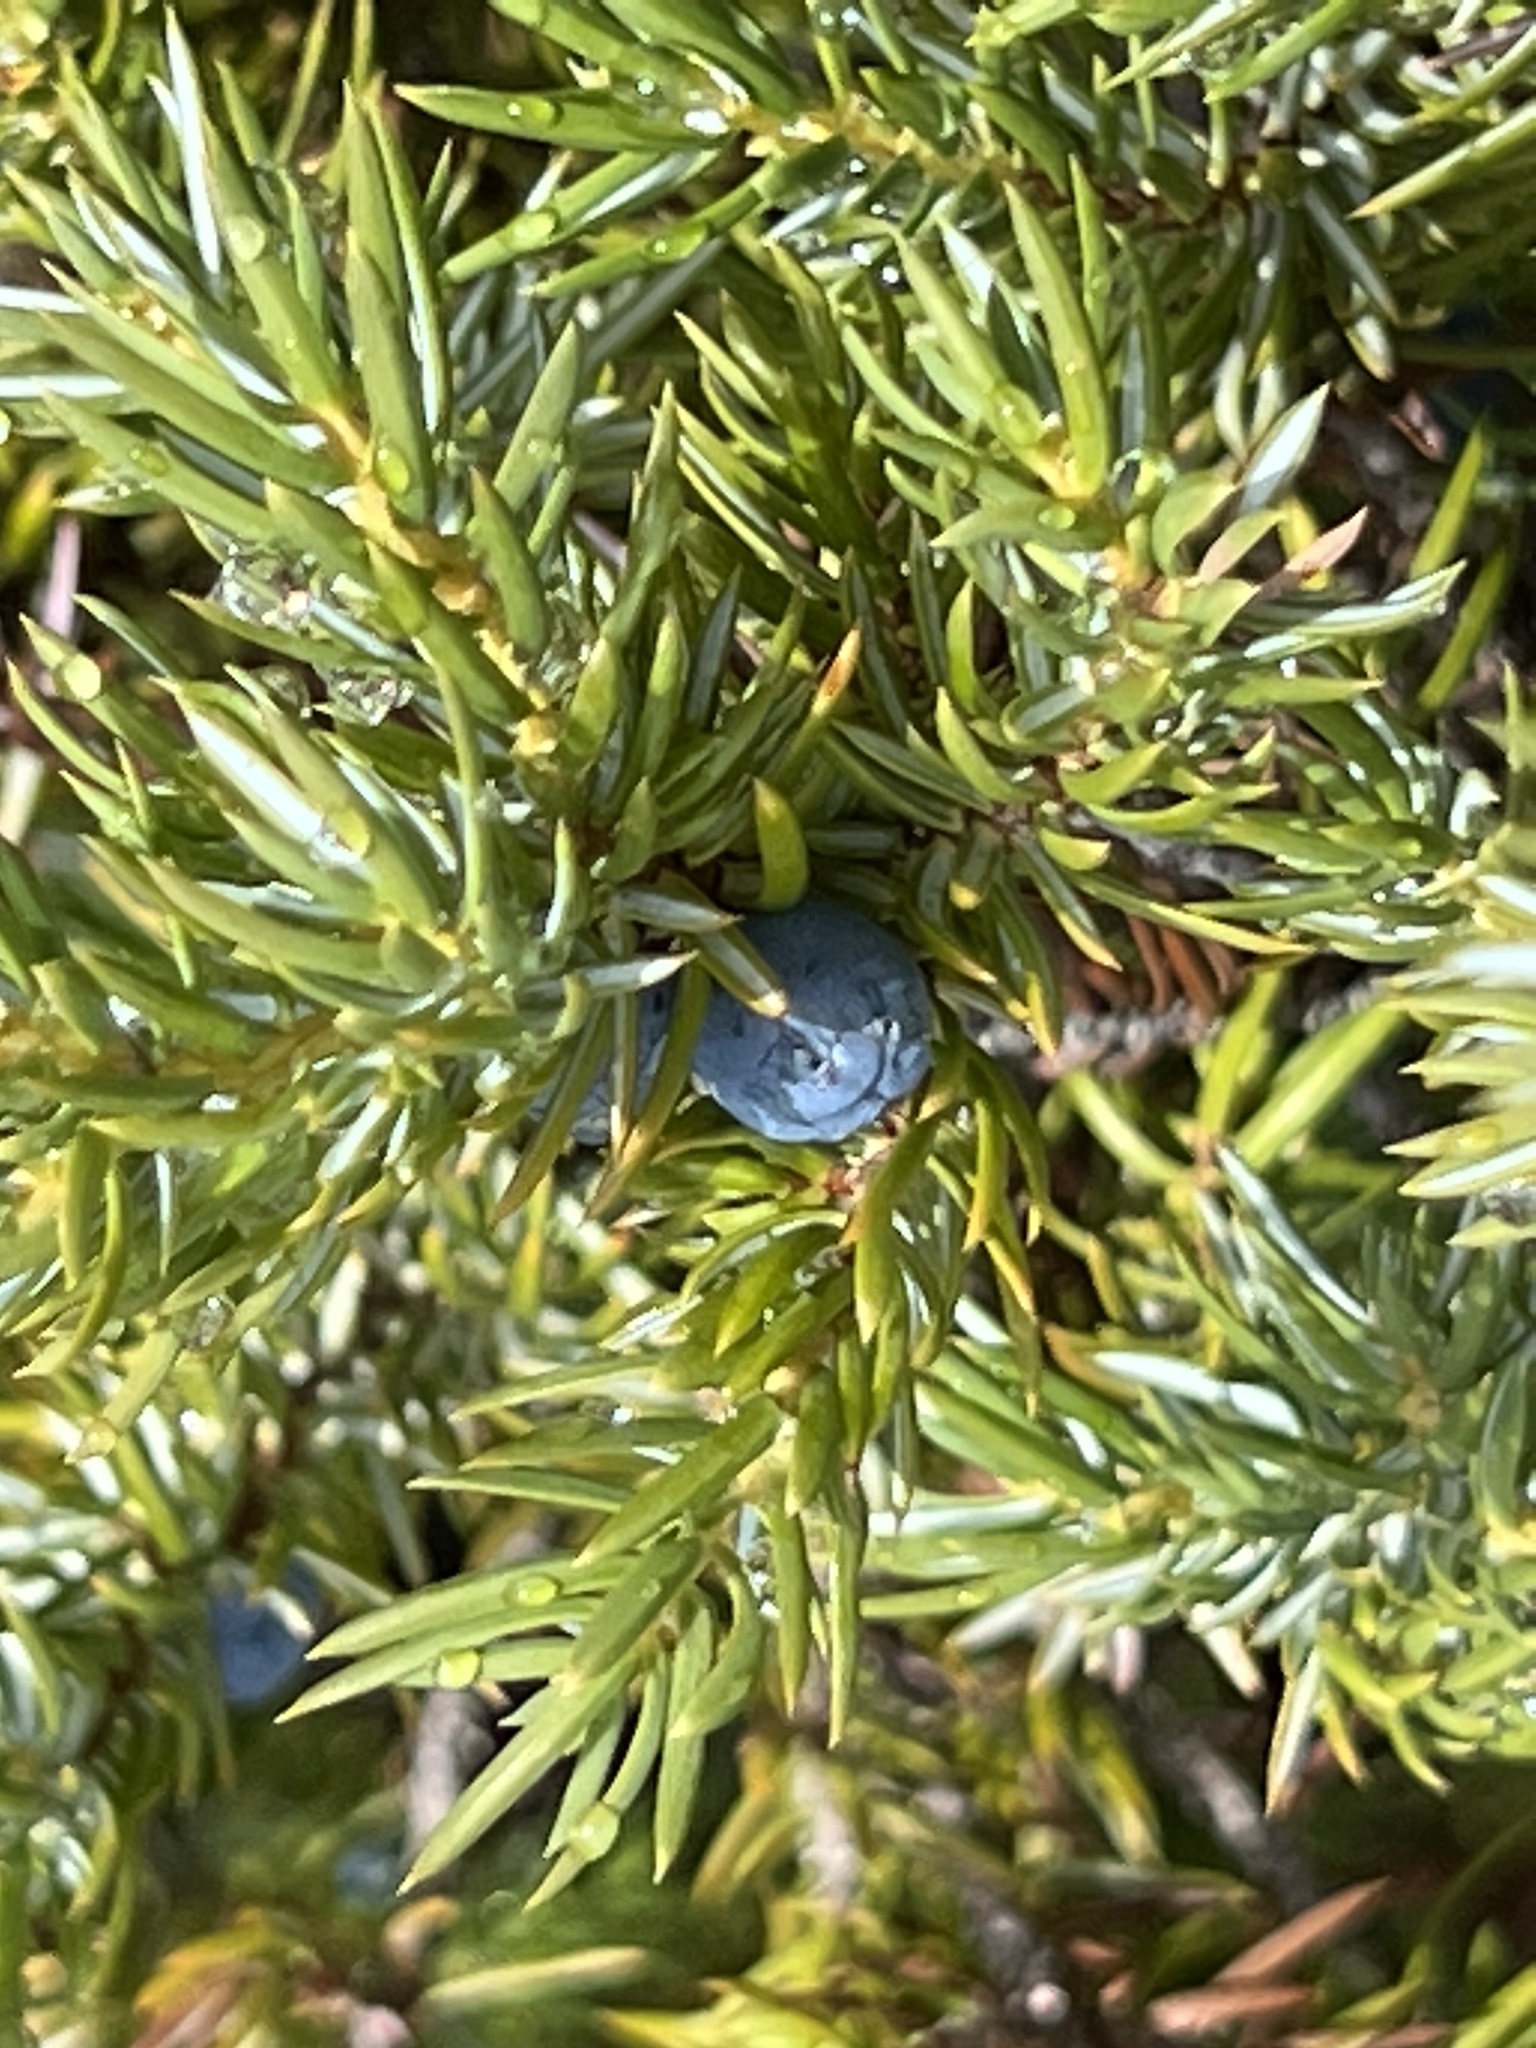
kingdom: Plantae
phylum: Tracheophyta
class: Pinopsida
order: Pinales
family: Cupressaceae
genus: Juniperus
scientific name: Juniperus communis
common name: Common juniper
